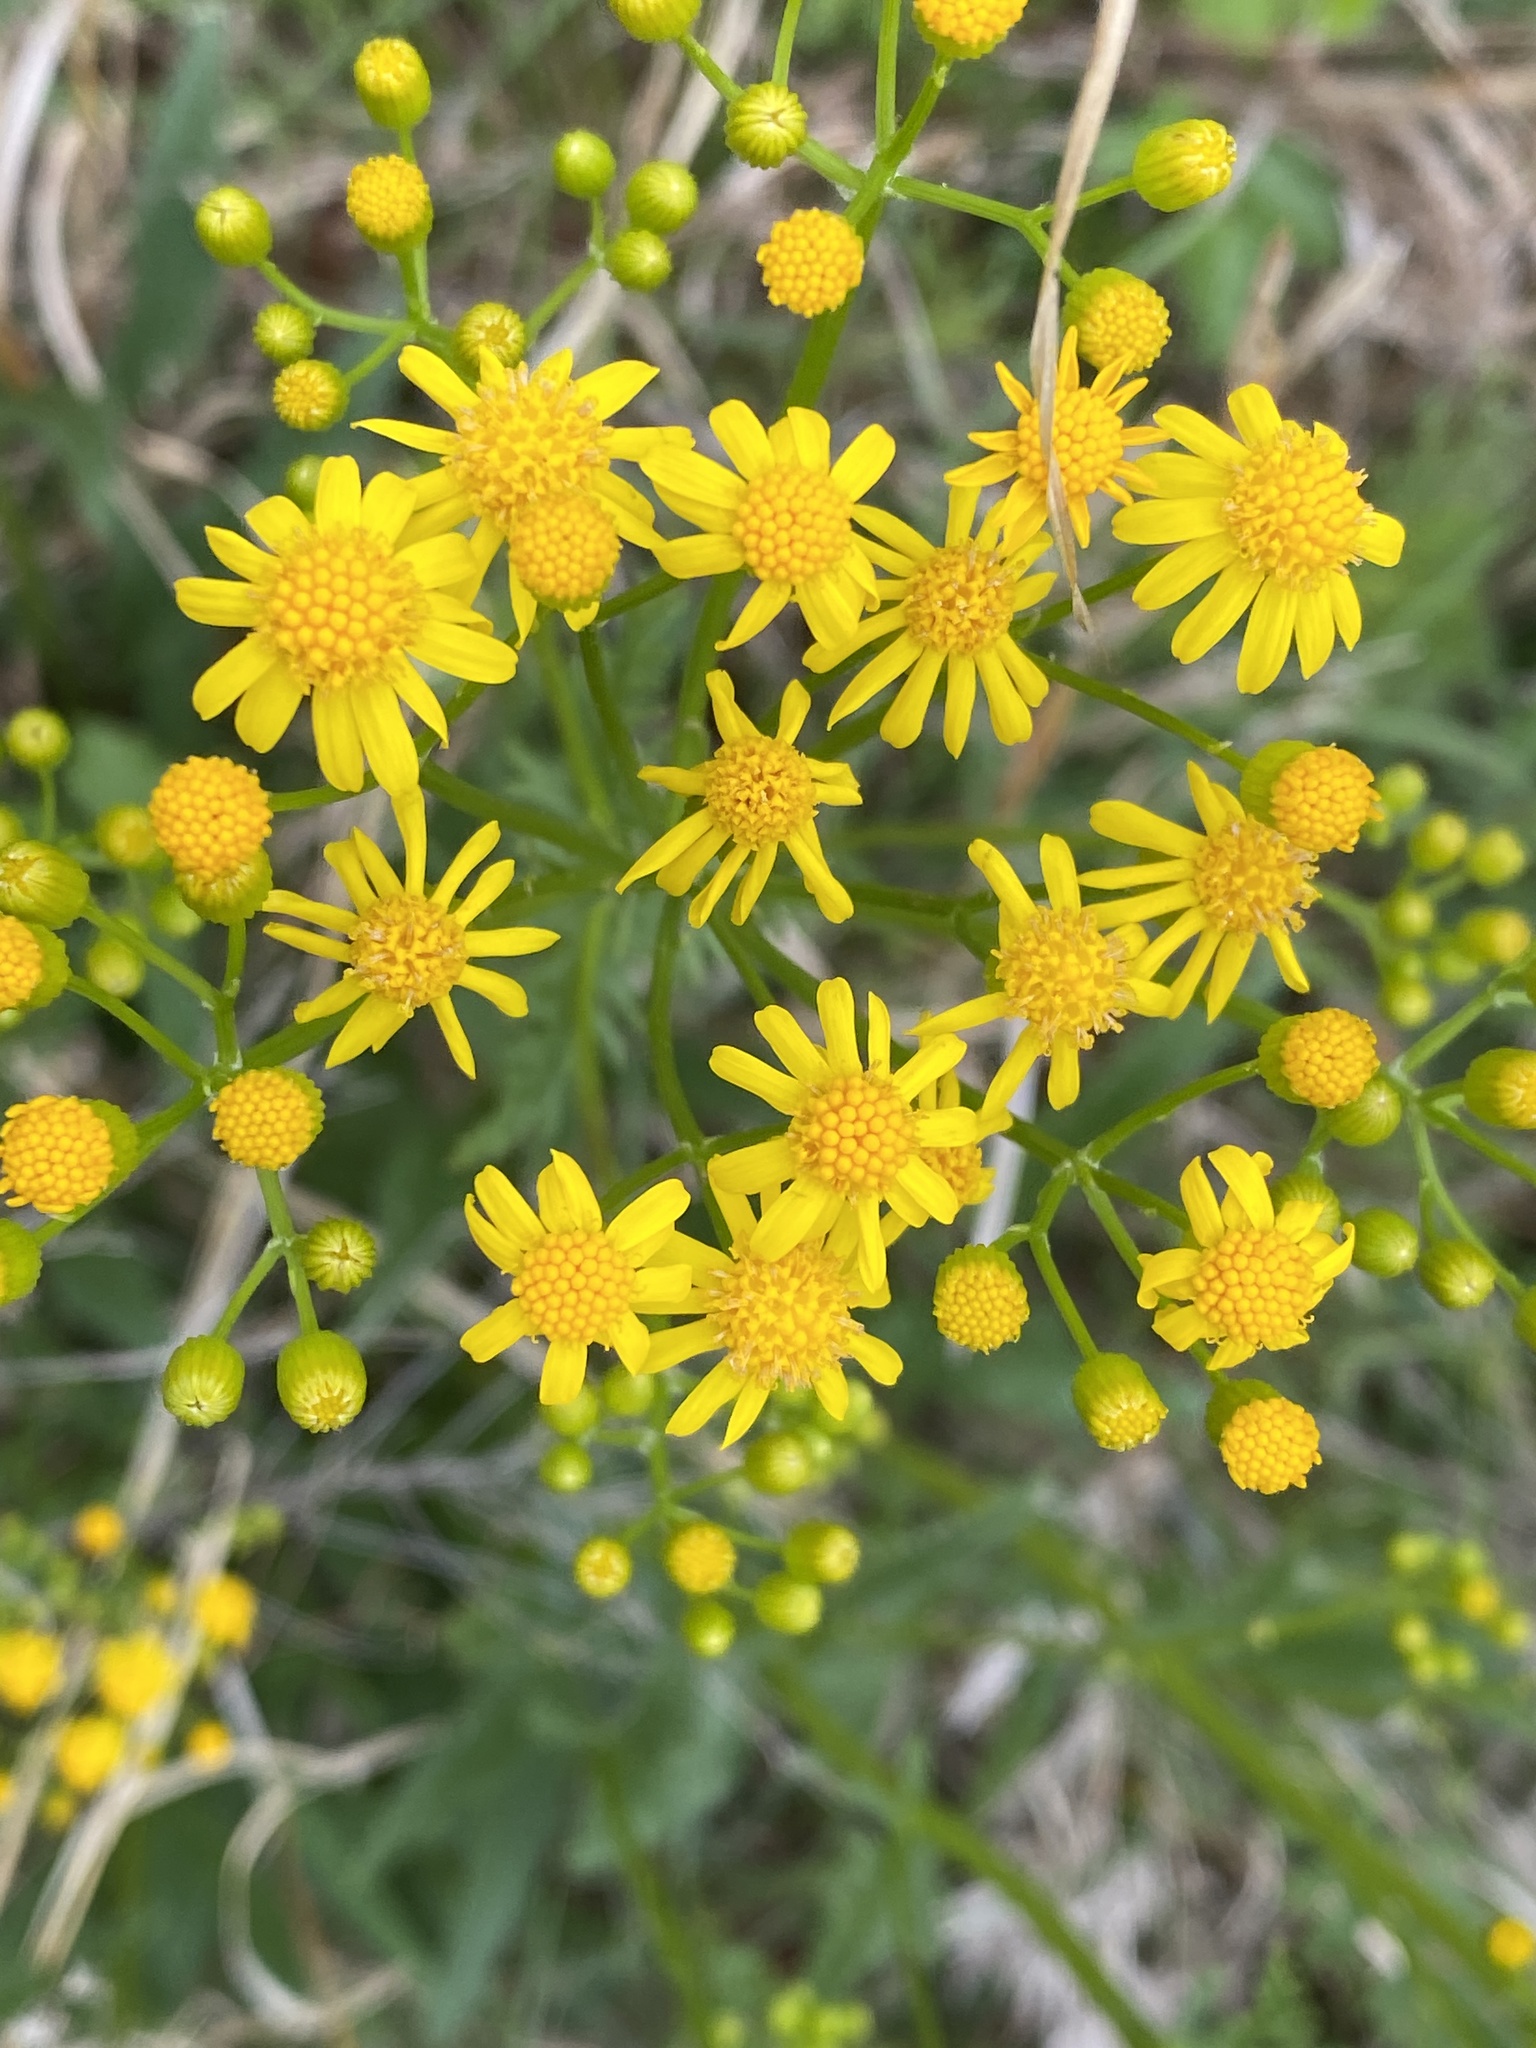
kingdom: Plantae
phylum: Tracheophyta
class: Magnoliopsida
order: Asterales
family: Asteraceae
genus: Packera
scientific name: Packera anonyma
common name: Small ragwort
